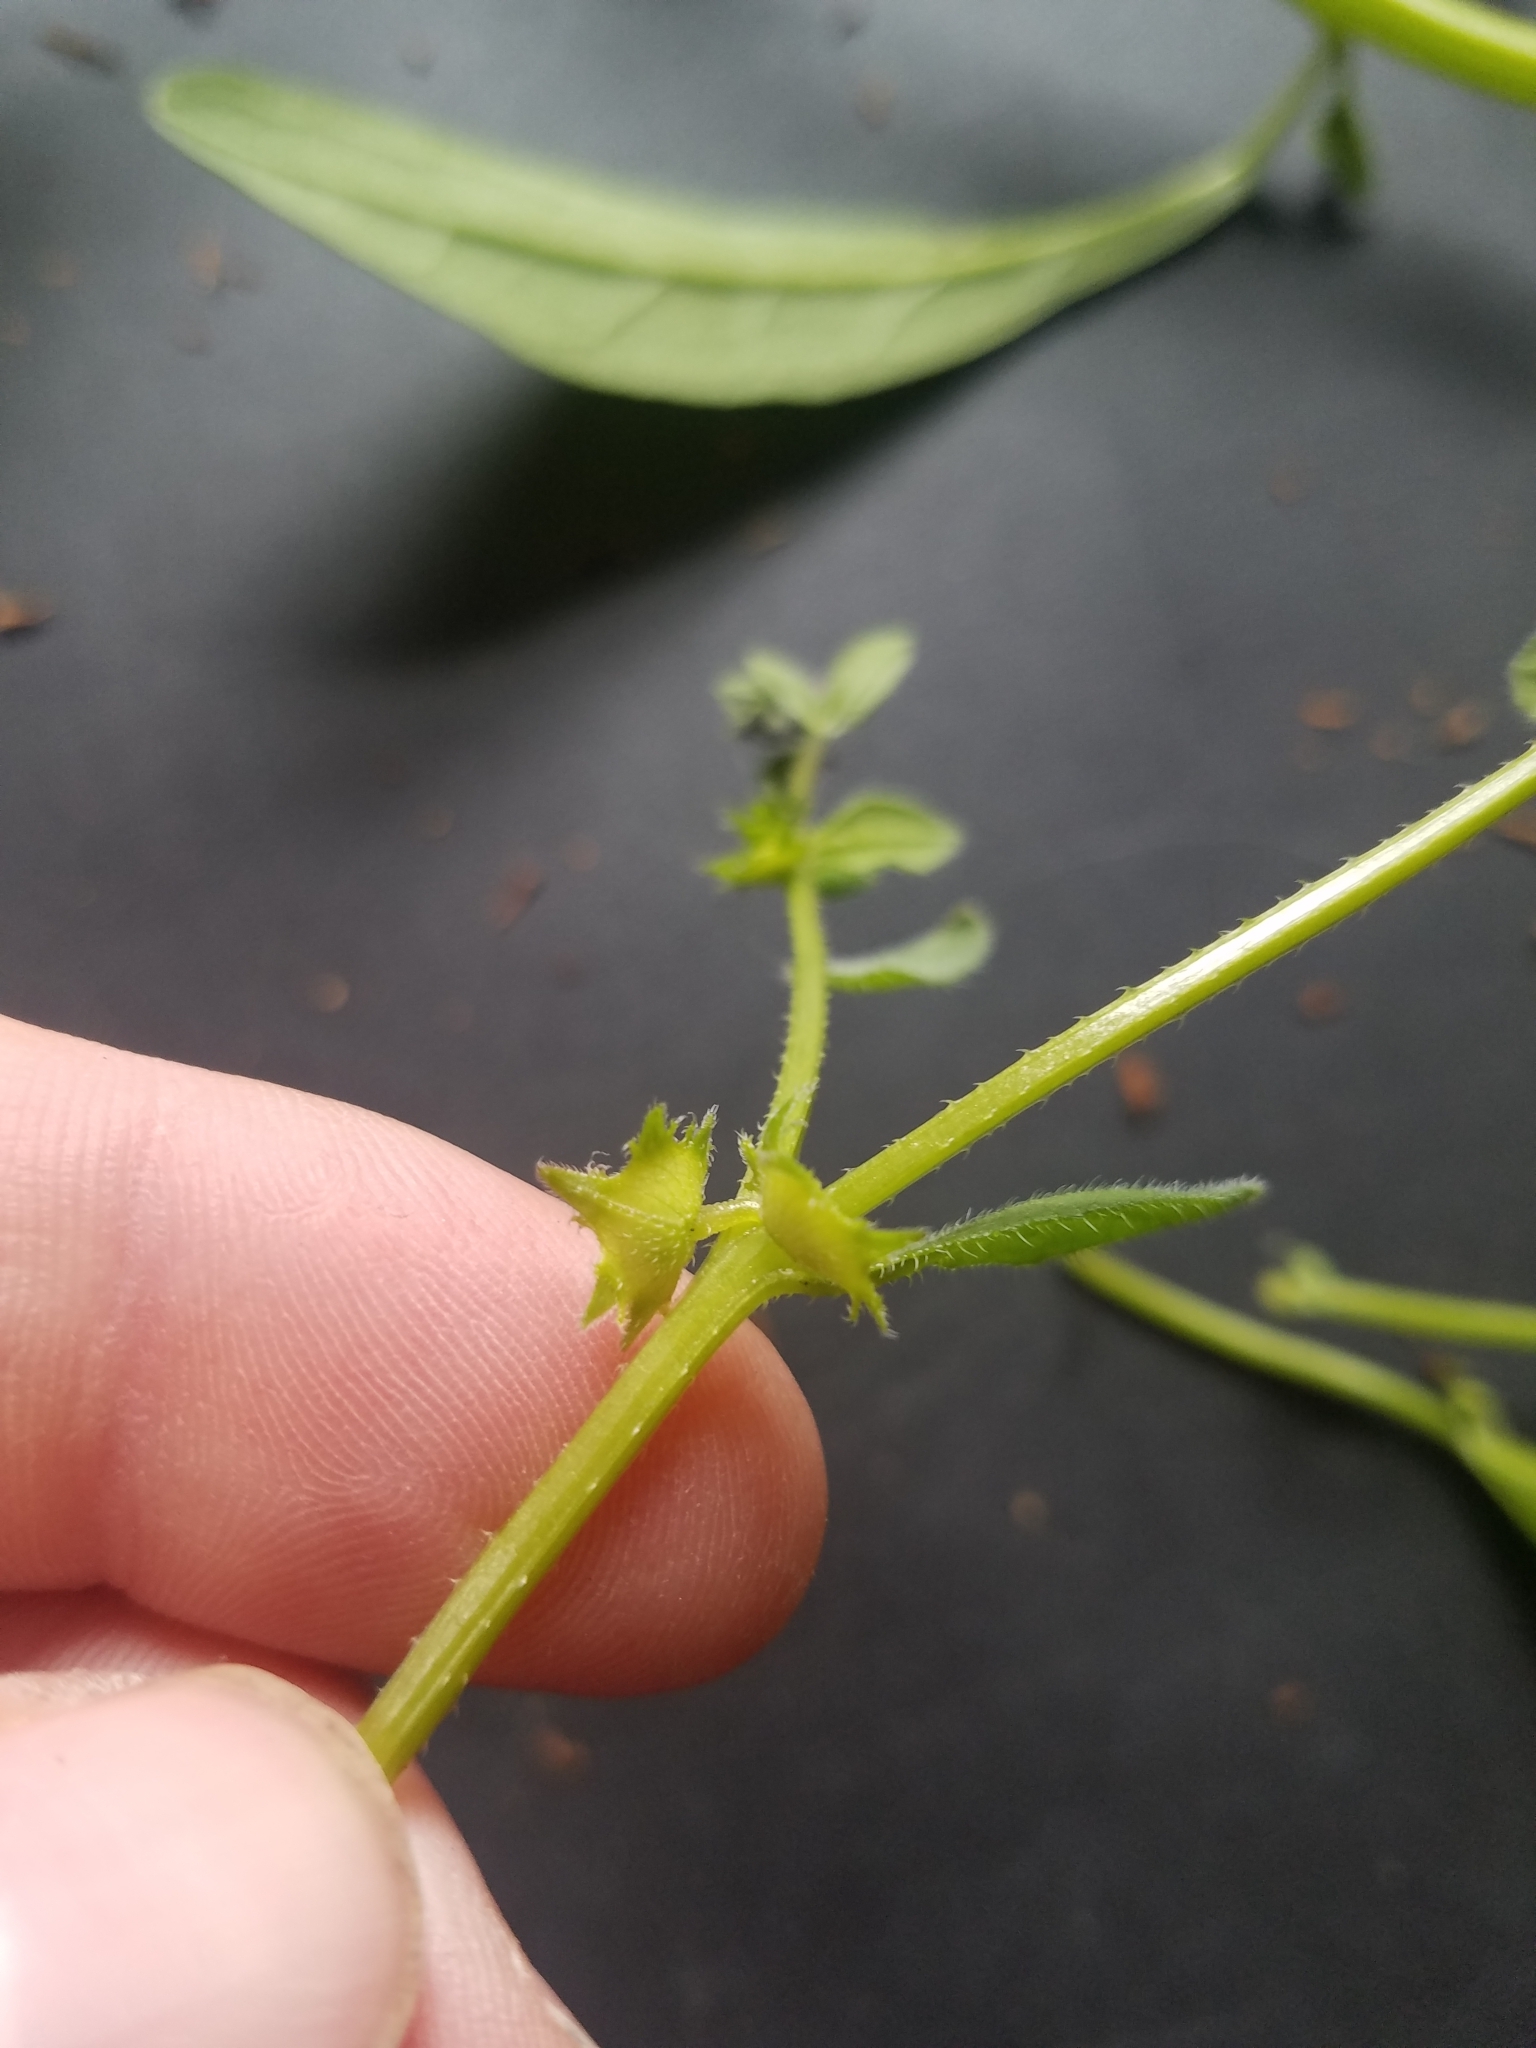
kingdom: Plantae
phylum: Tracheophyta
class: Magnoliopsida
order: Boraginales
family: Boraginaceae
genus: Asperugo
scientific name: Asperugo procumbens
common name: Madwort
